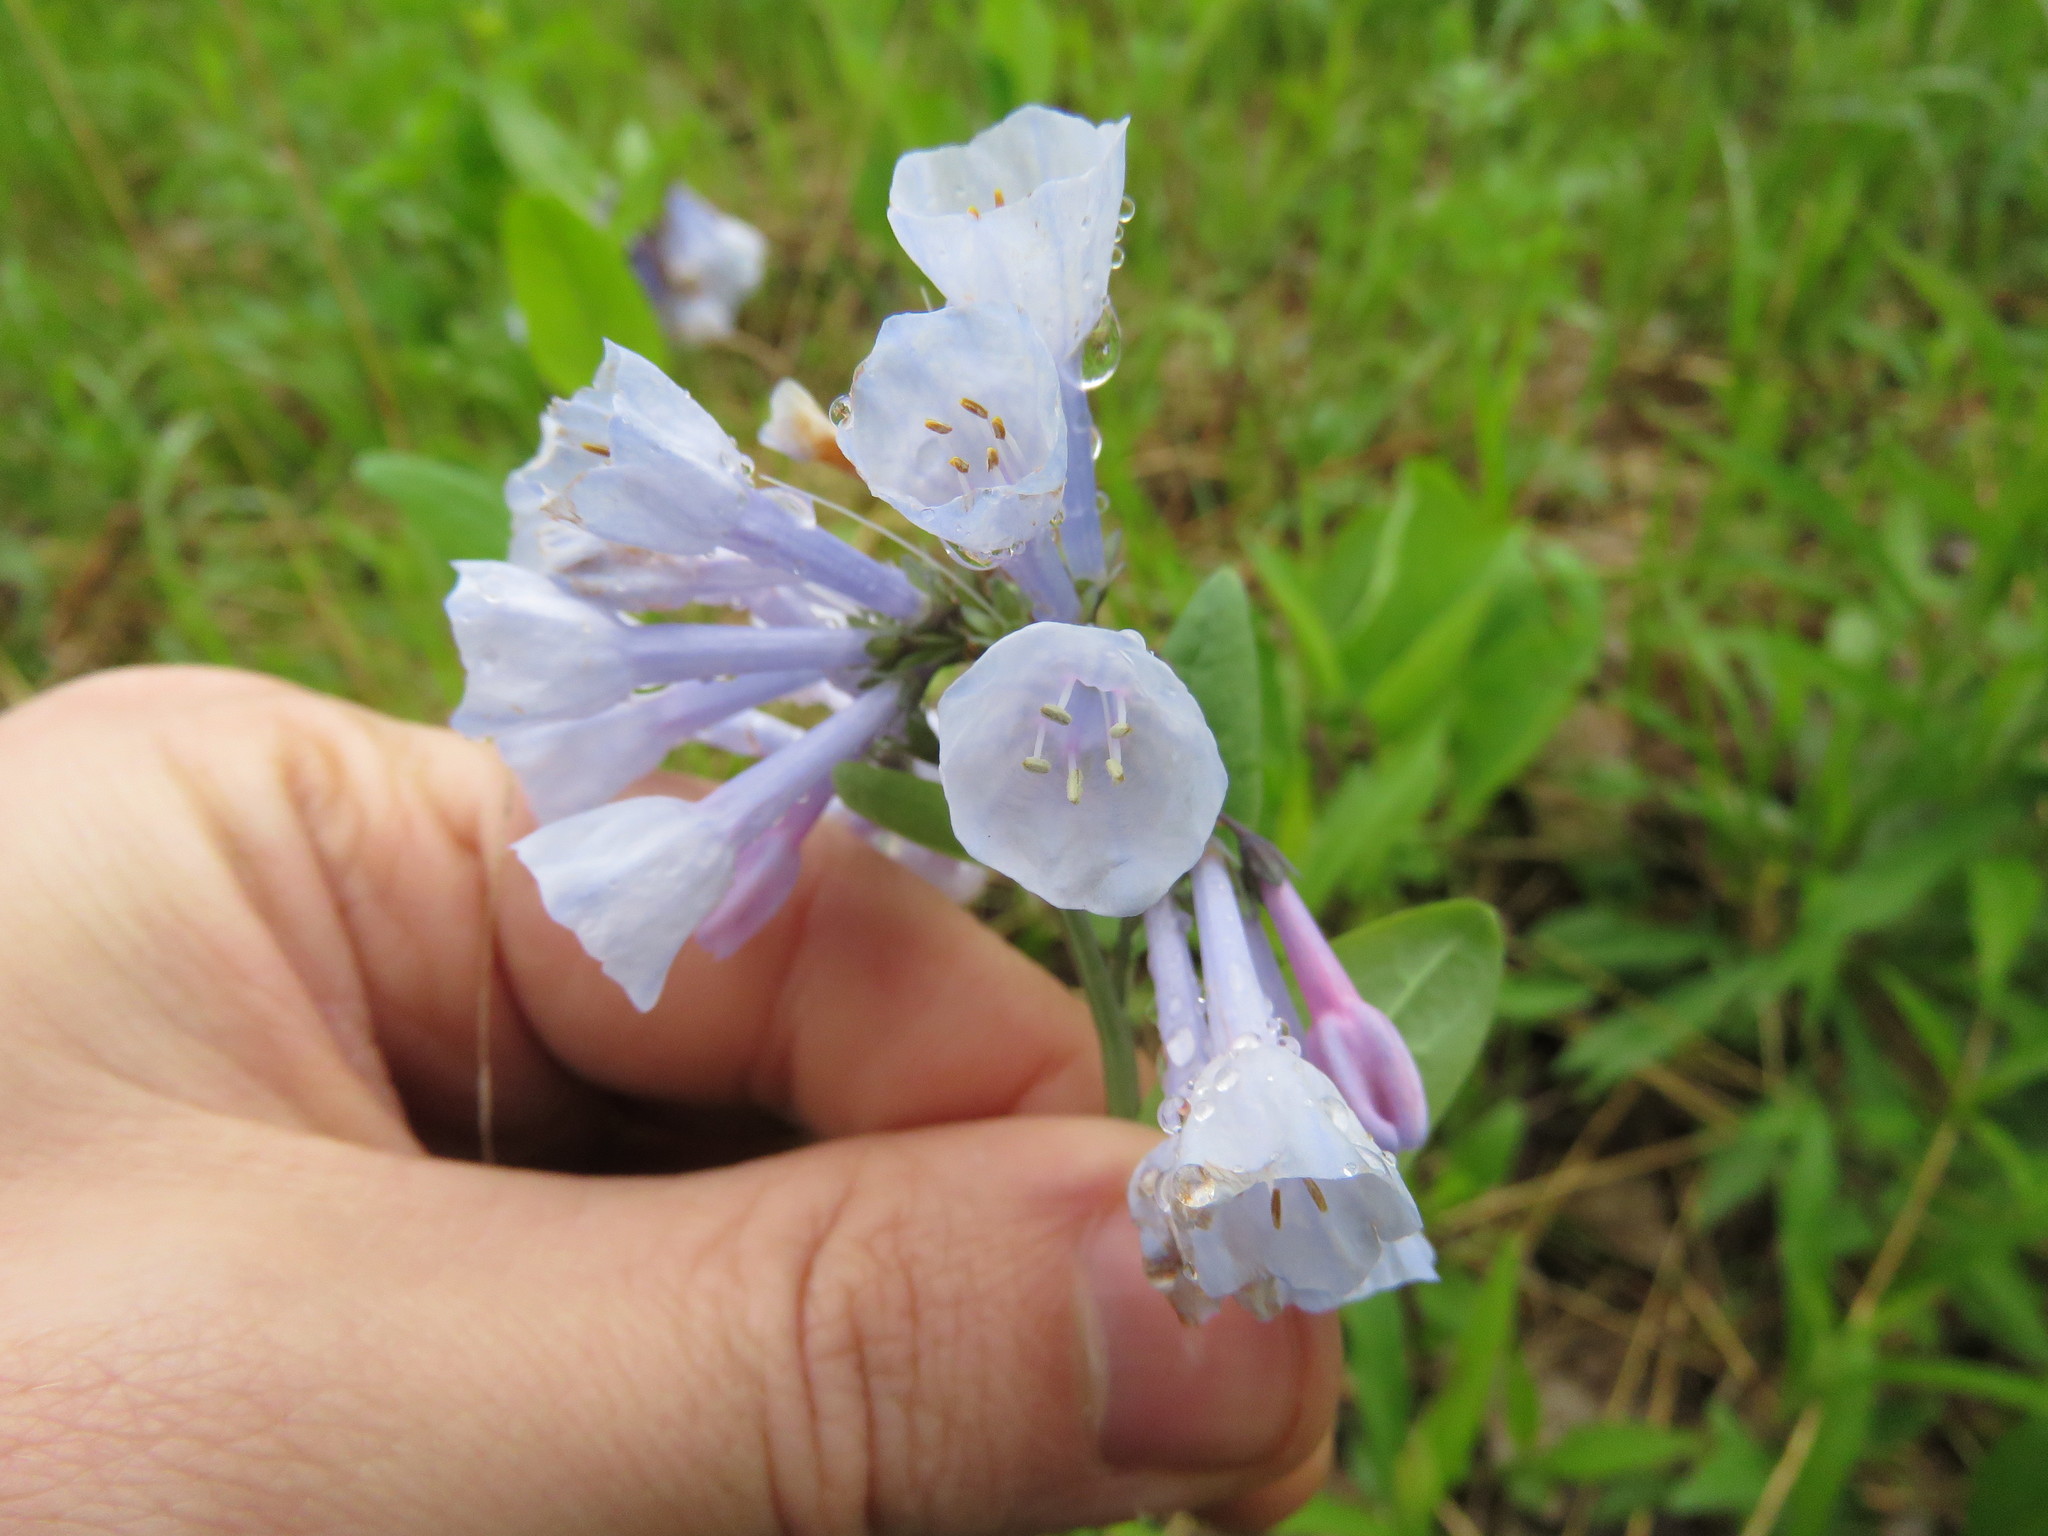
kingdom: Plantae
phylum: Tracheophyta
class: Magnoliopsida
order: Boraginales
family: Boraginaceae
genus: Mertensia
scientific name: Mertensia virginica
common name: Virginia bluebells
